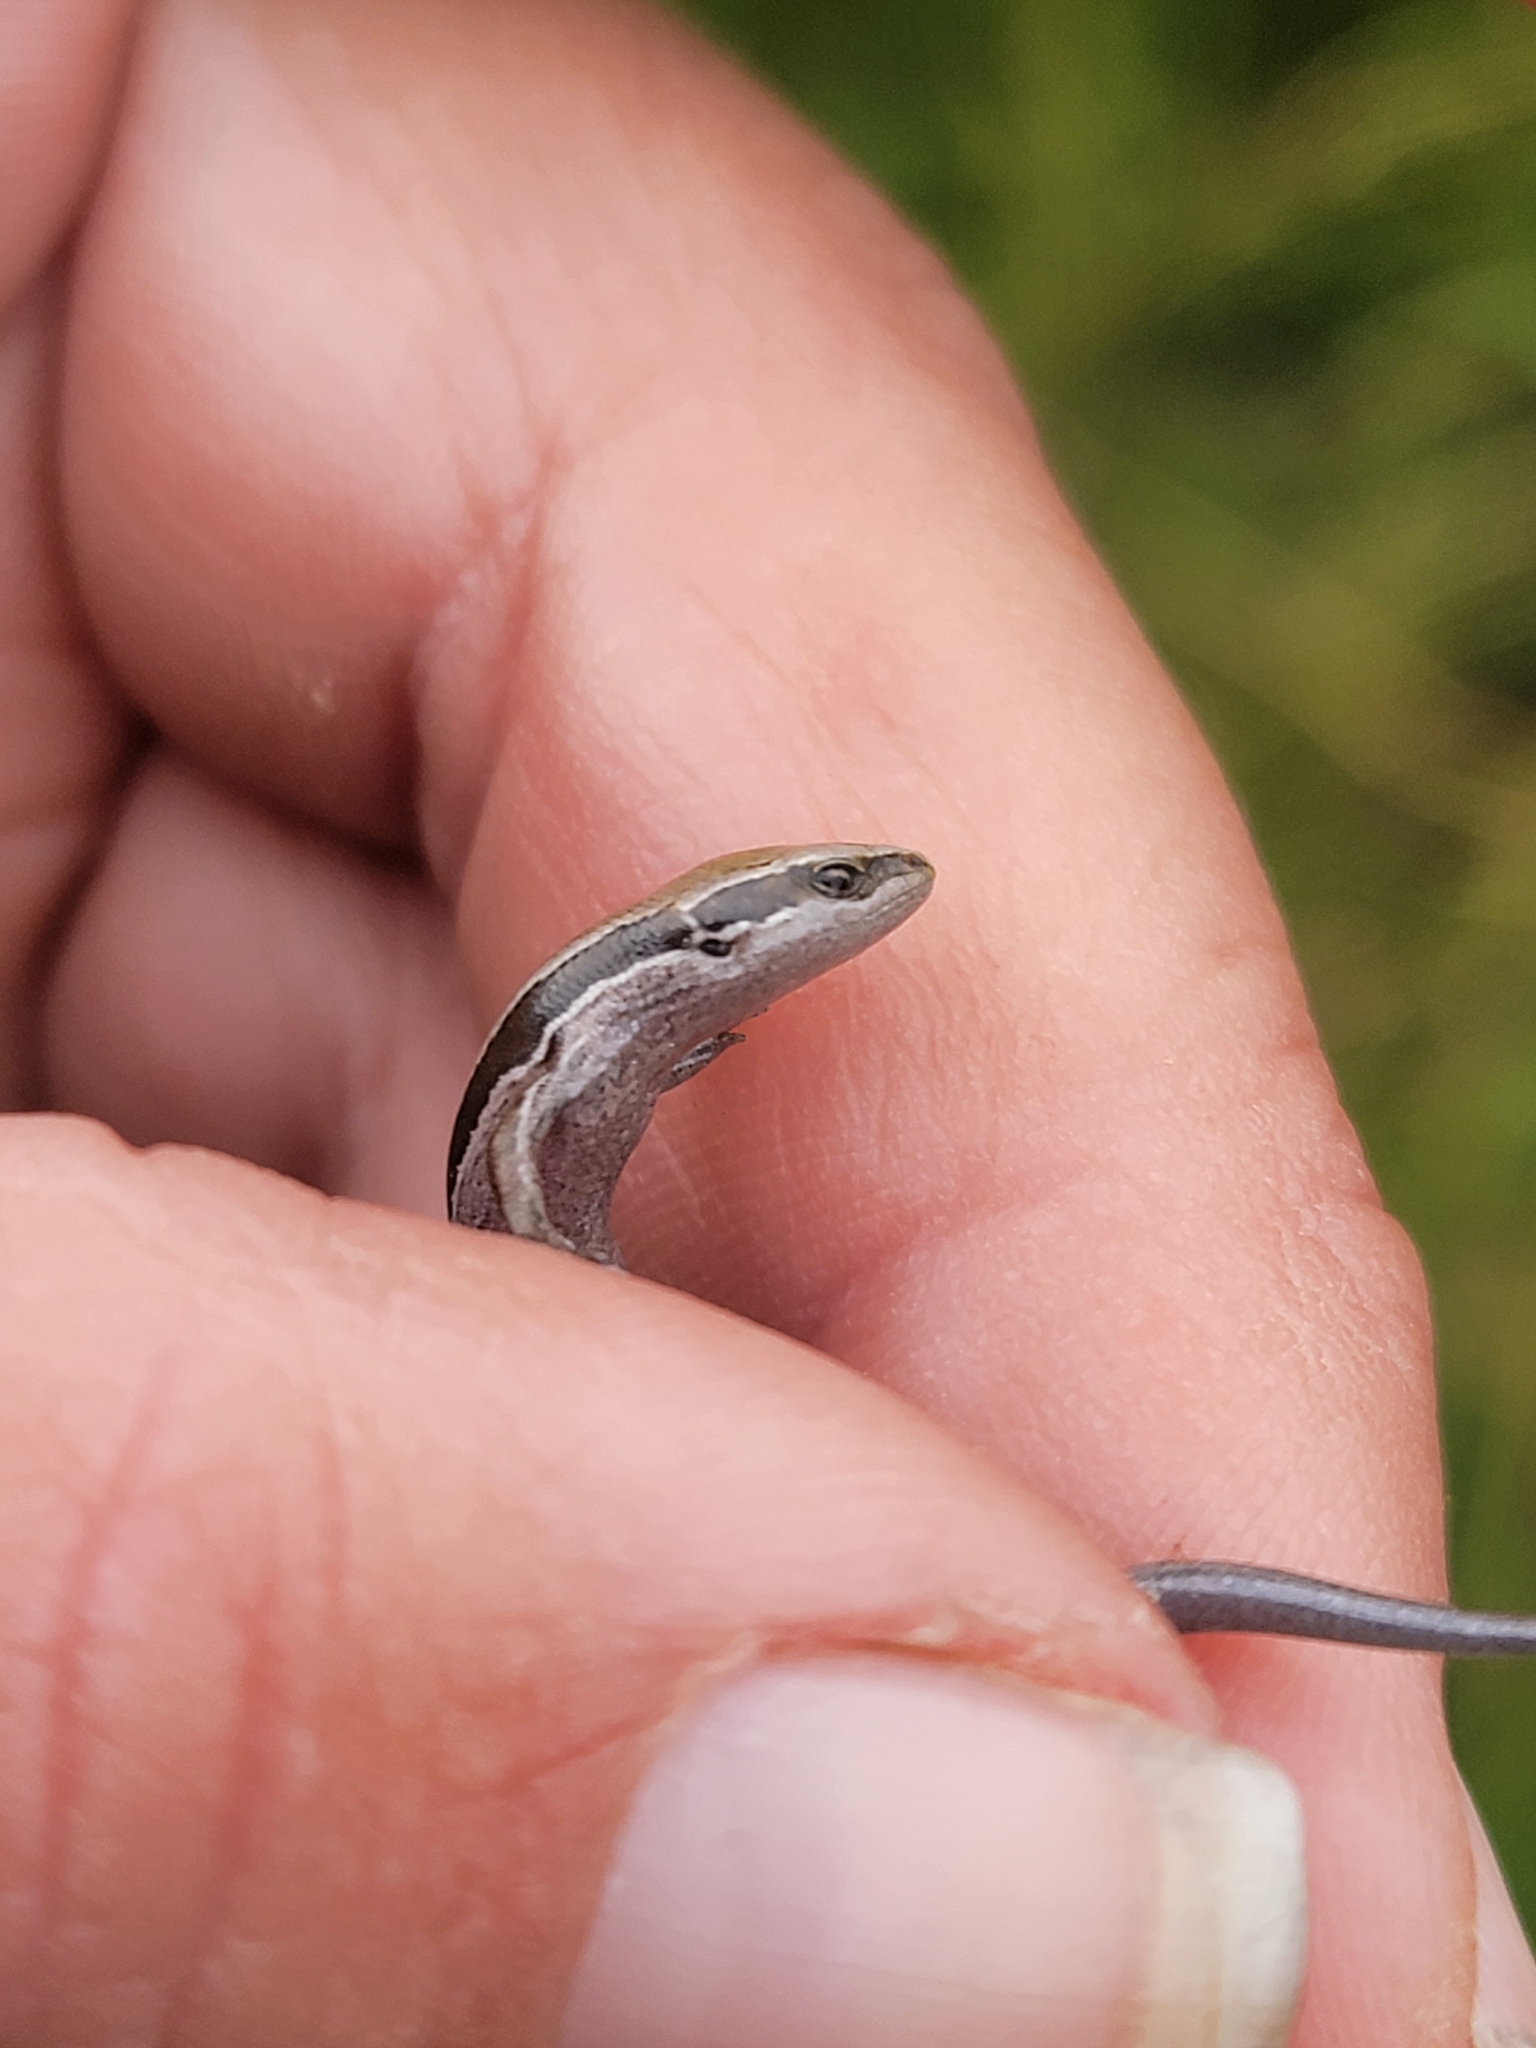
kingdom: Animalia
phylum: Chordata
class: Squamata
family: Scincidae
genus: Oligosoma
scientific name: Oligosoma polychroma
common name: Common new zealand skink
